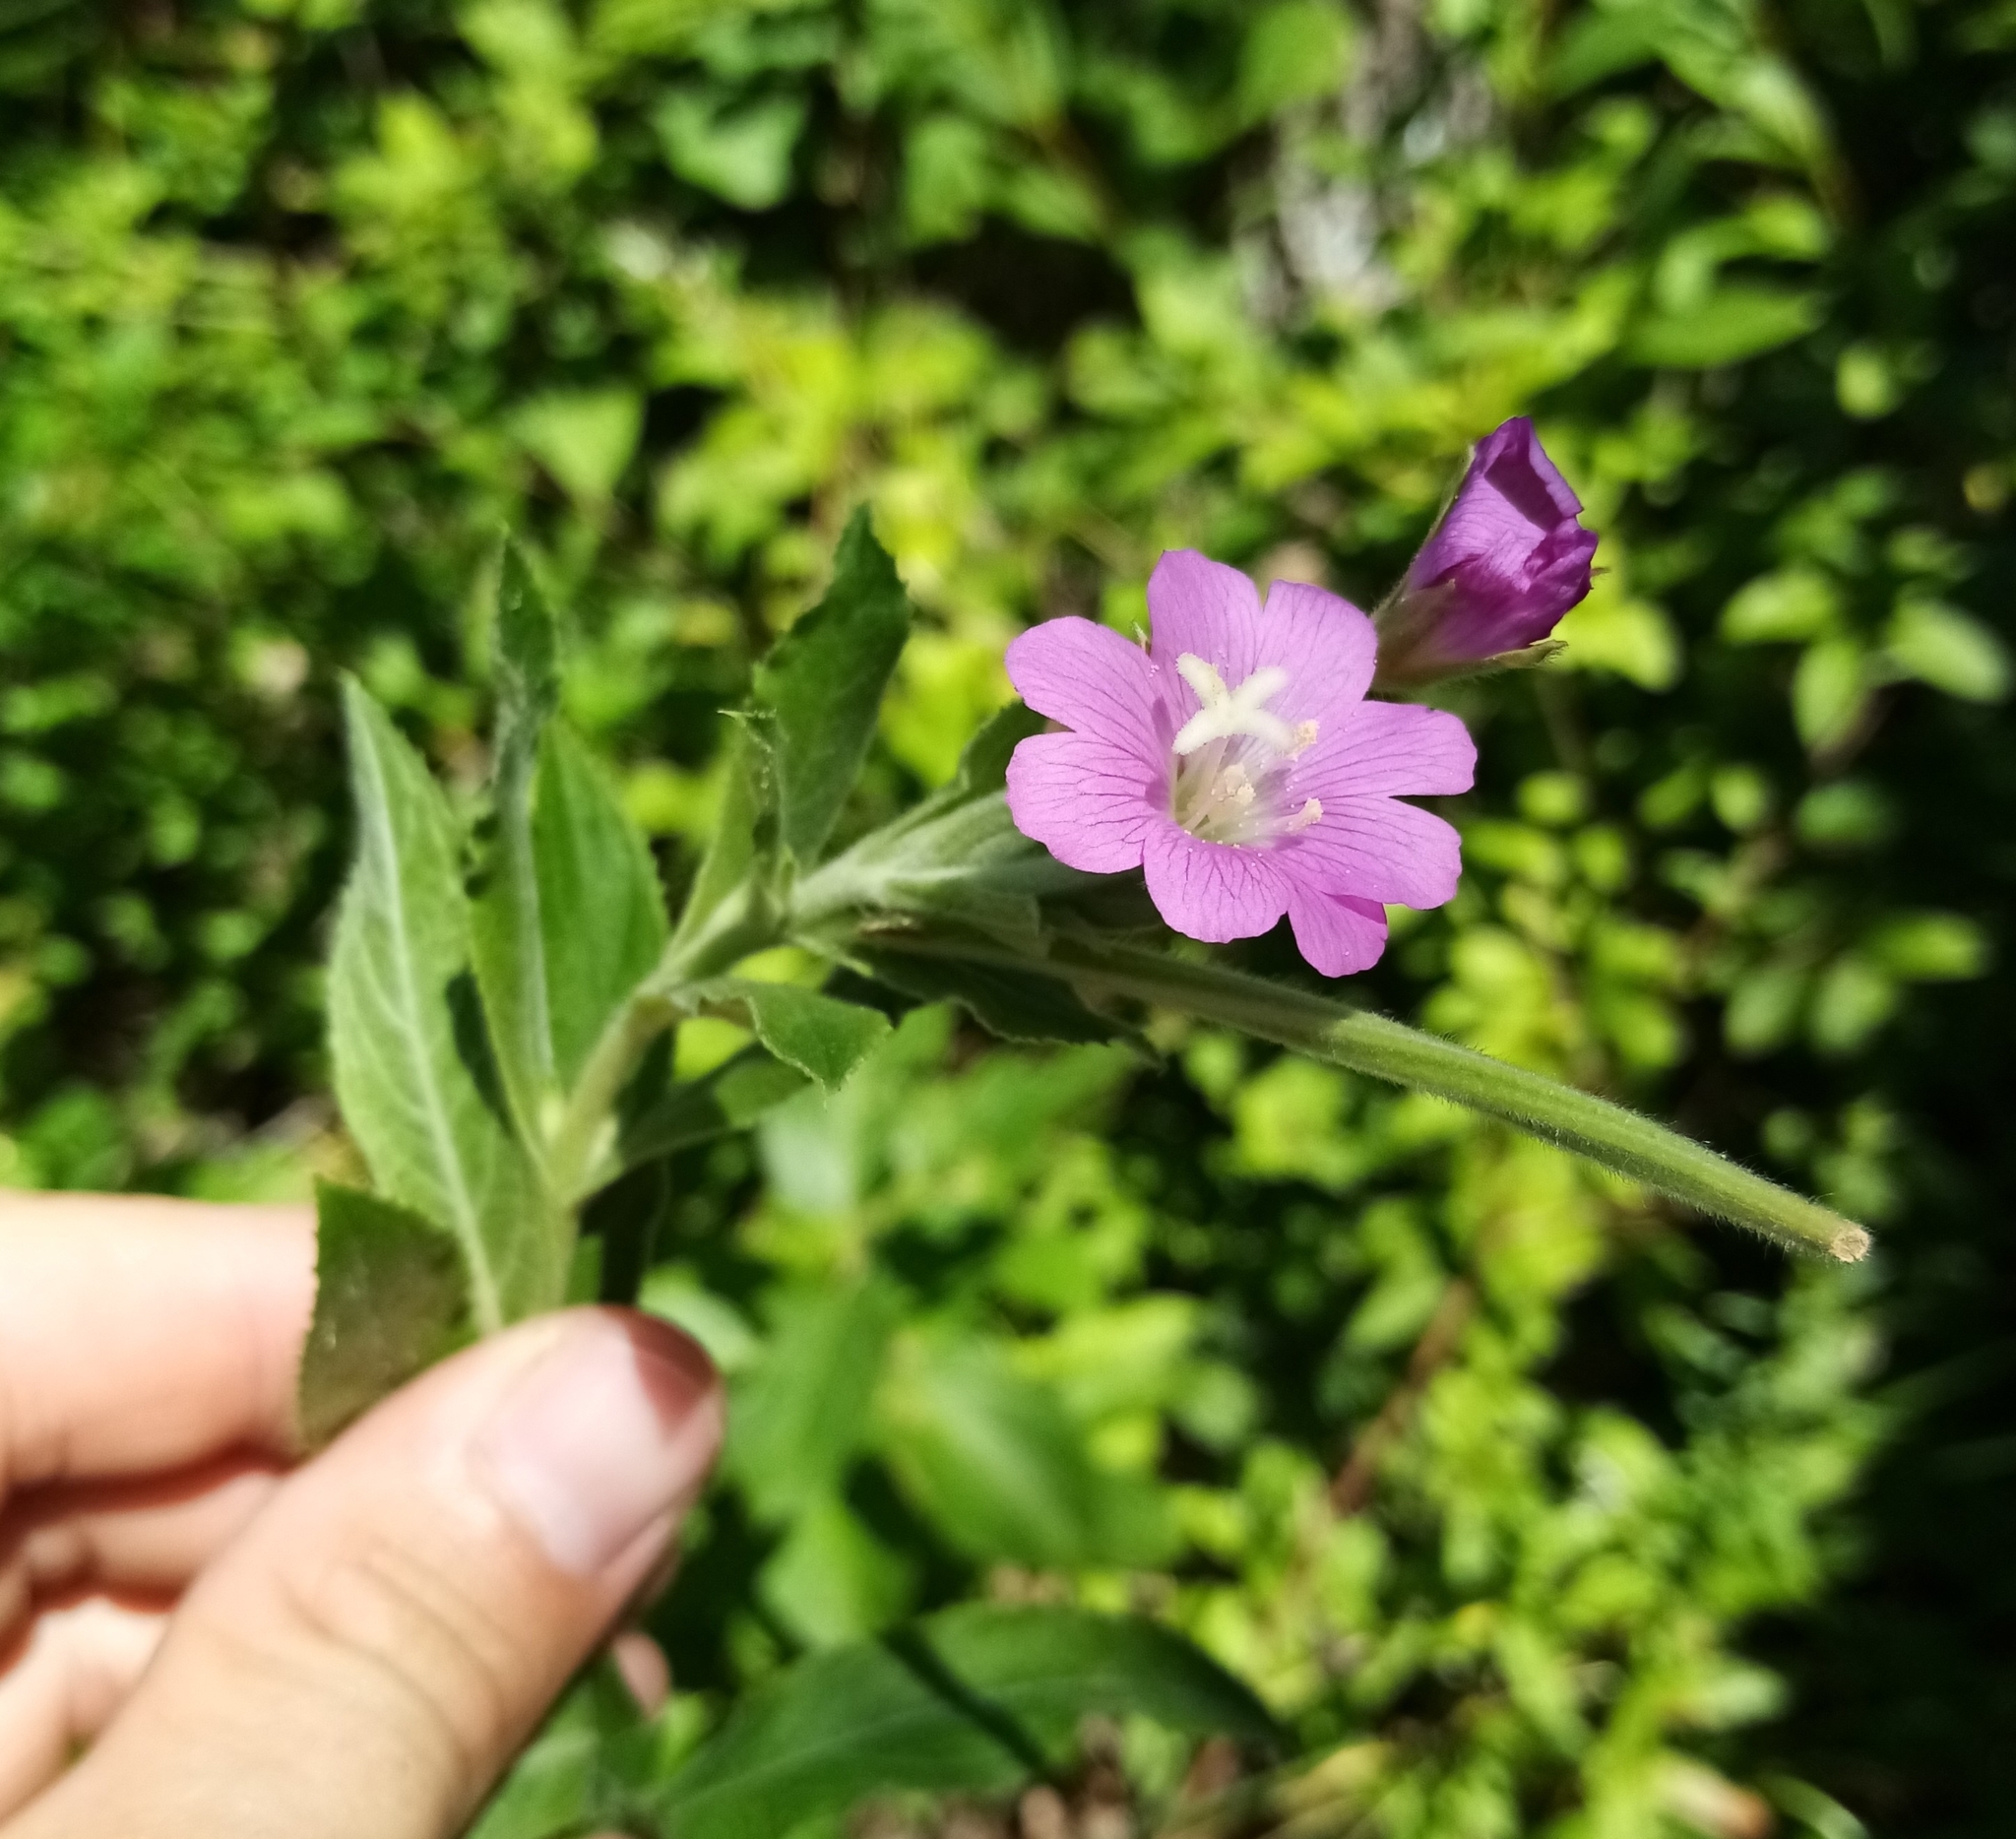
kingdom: Plantae
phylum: Tracheophyta
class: Magnoliopsida
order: Myrtales
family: Onagraceae
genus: Epilobium
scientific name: Epilobium hirsutum
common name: Great willowherb
